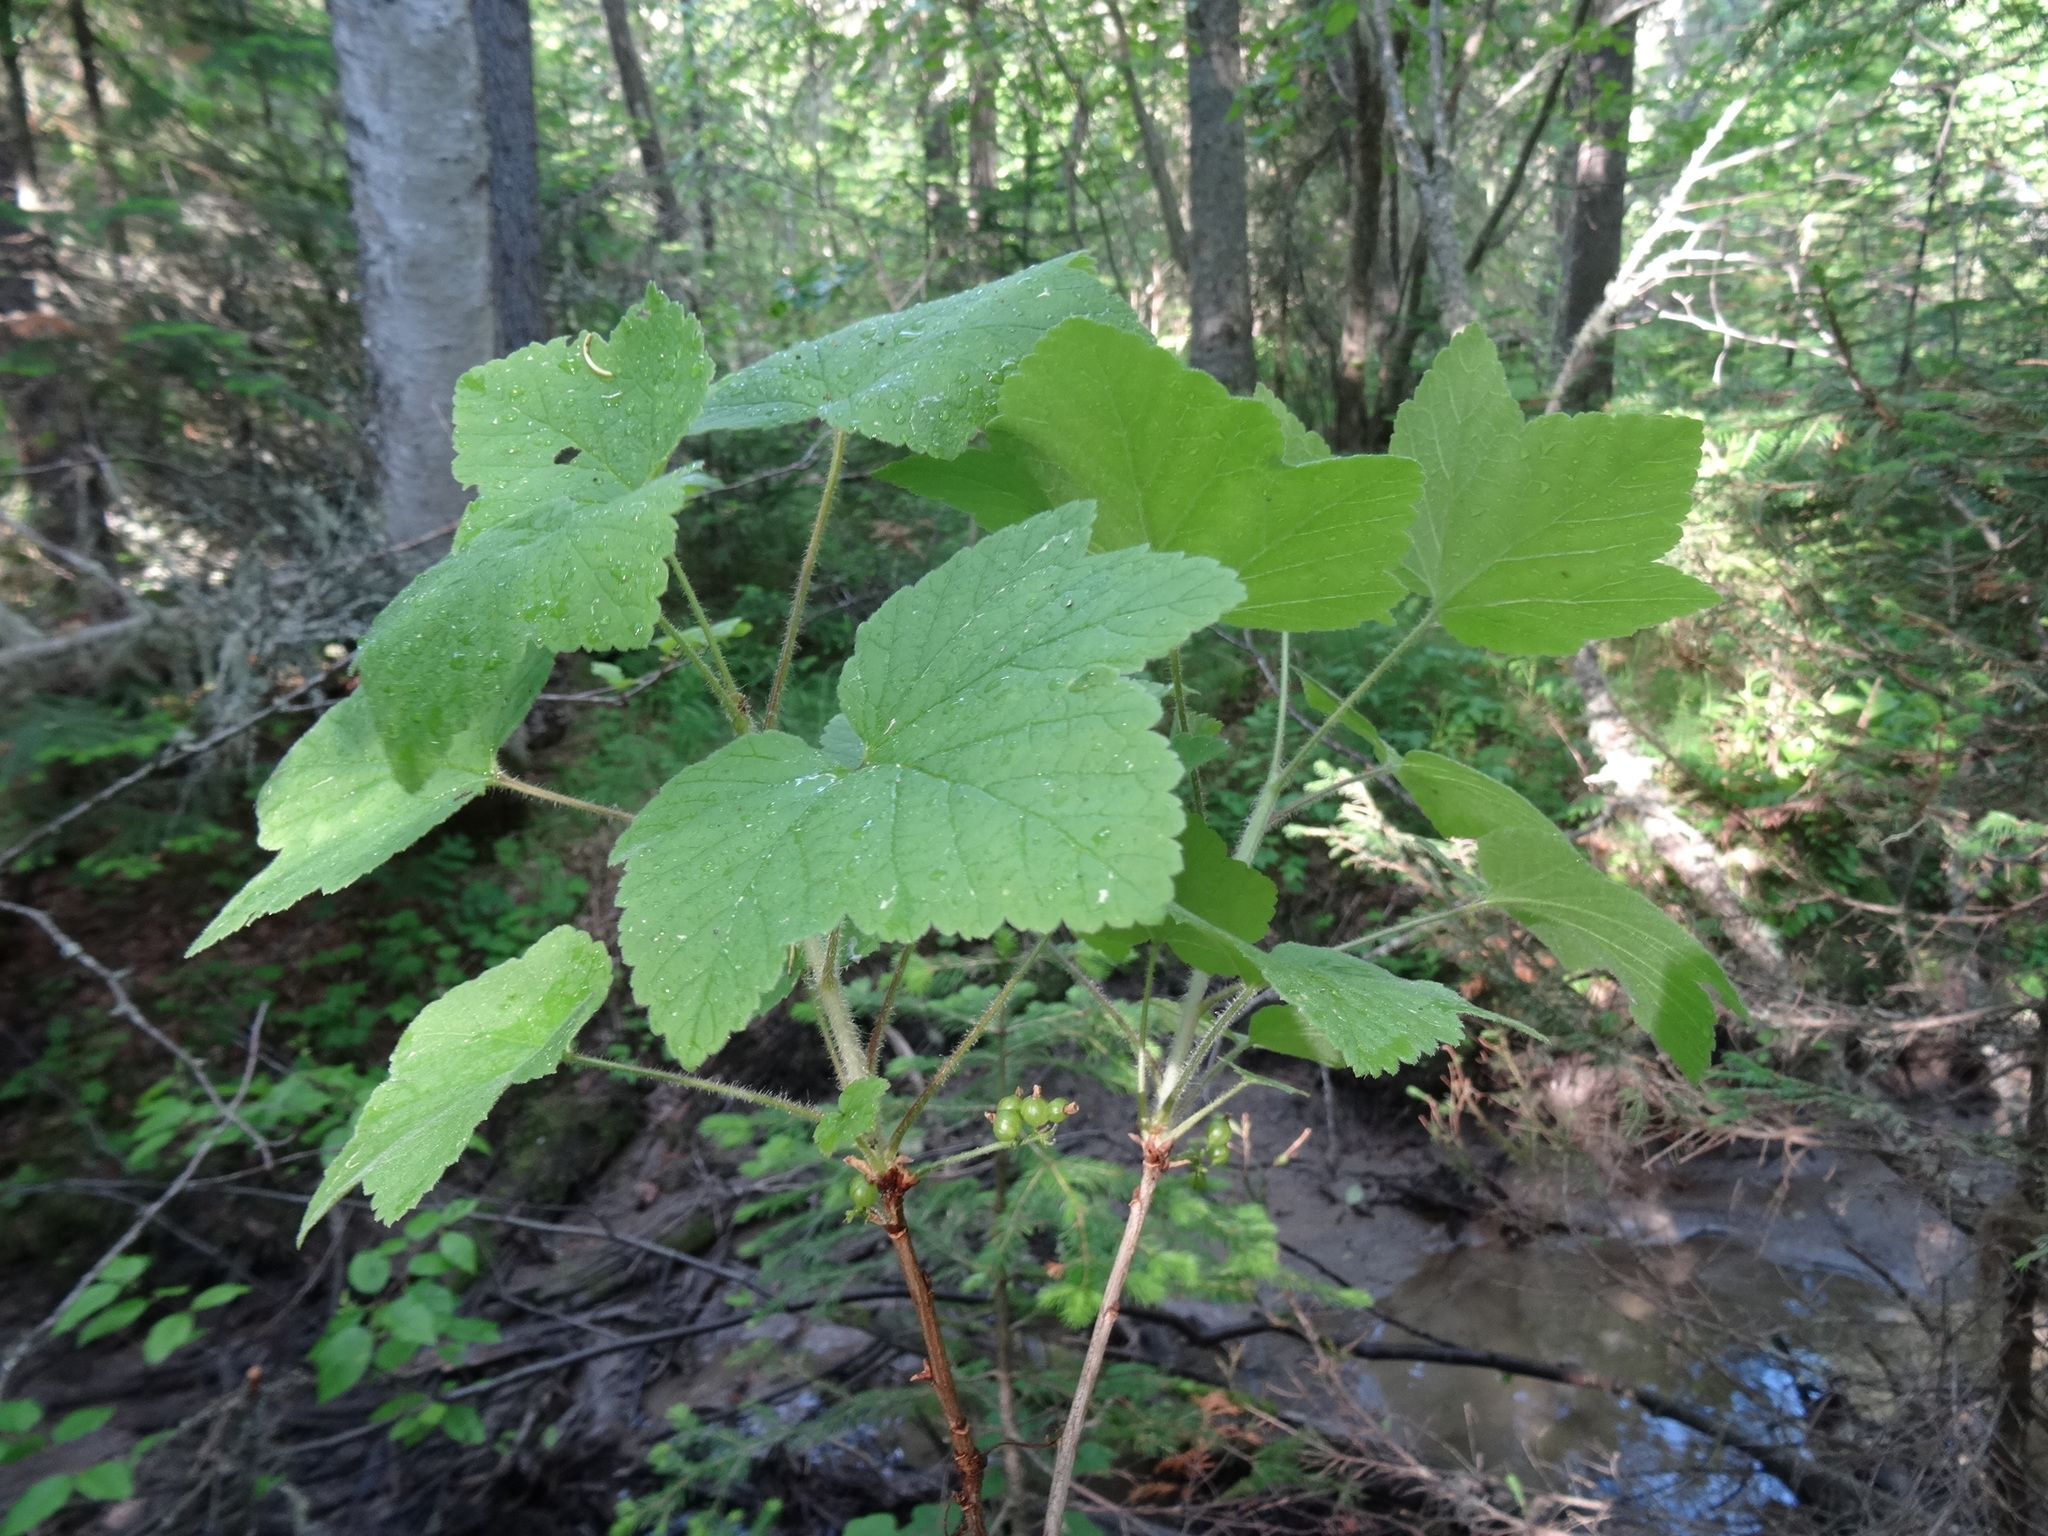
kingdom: Plantae
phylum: Tracheophyta
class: Magnoliopsida
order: Saxifragales
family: Grossulariaceae
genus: Ribes
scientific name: Ribes spicatum
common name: Downy currant
